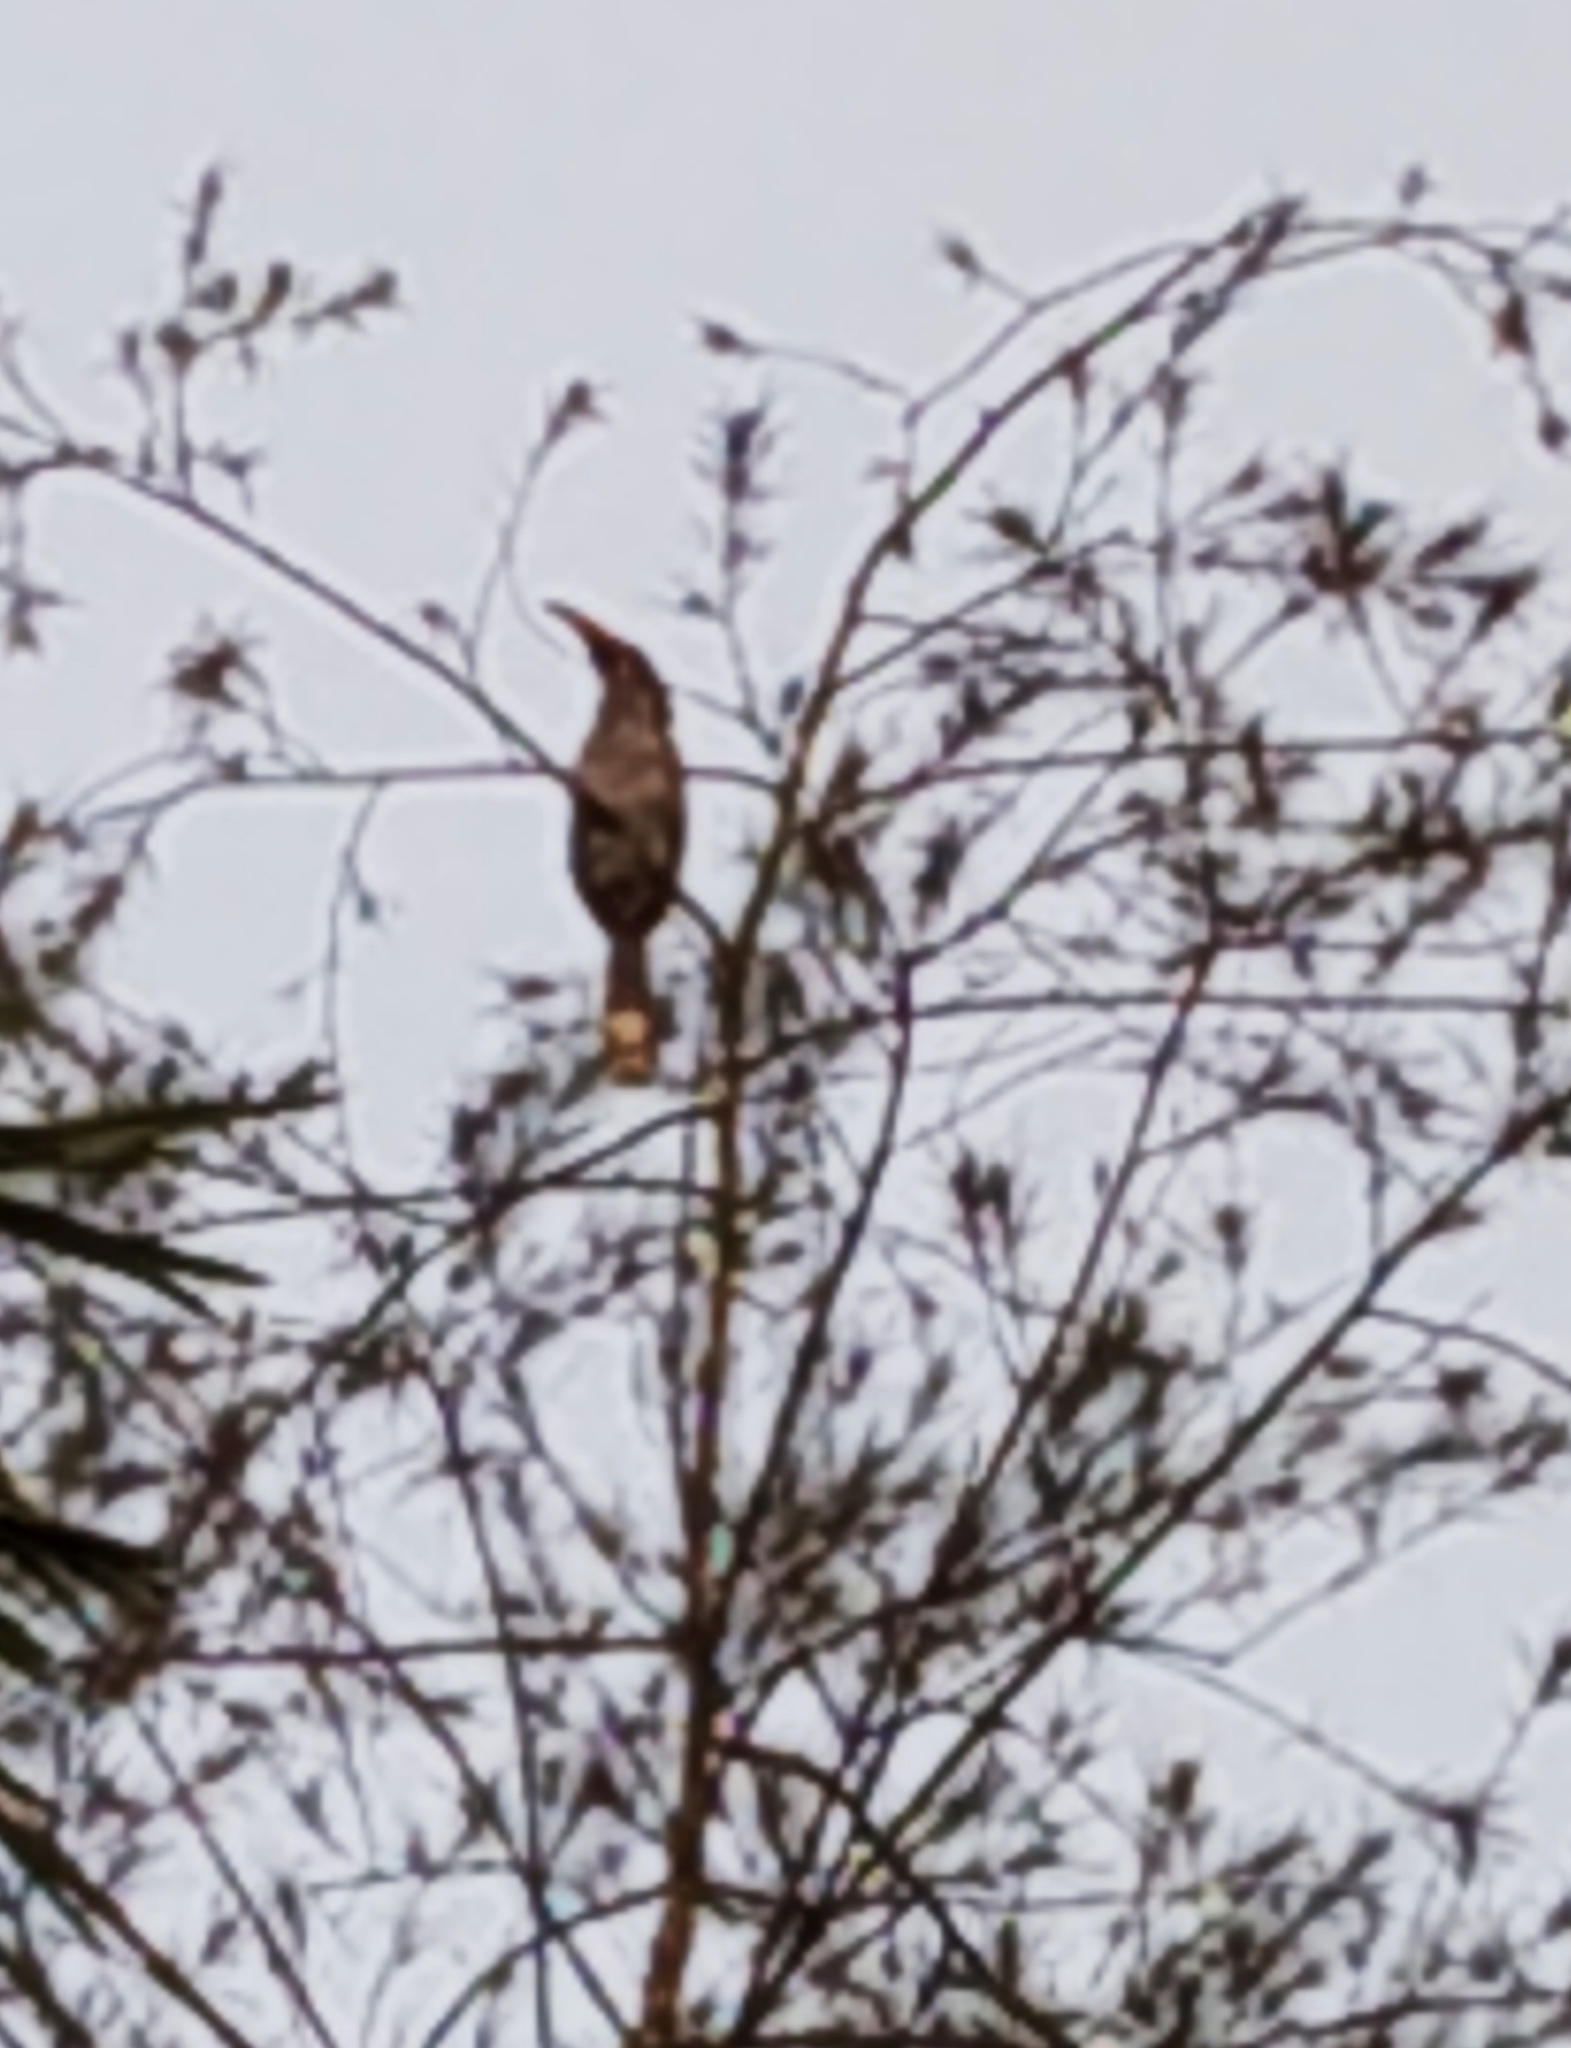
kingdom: Animalia
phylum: Chordata
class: Aves
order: Bucerotiformes
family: Bucerotidae
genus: Ocyceros
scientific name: Ocyceros griseus
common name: Malabar grey hornbill
